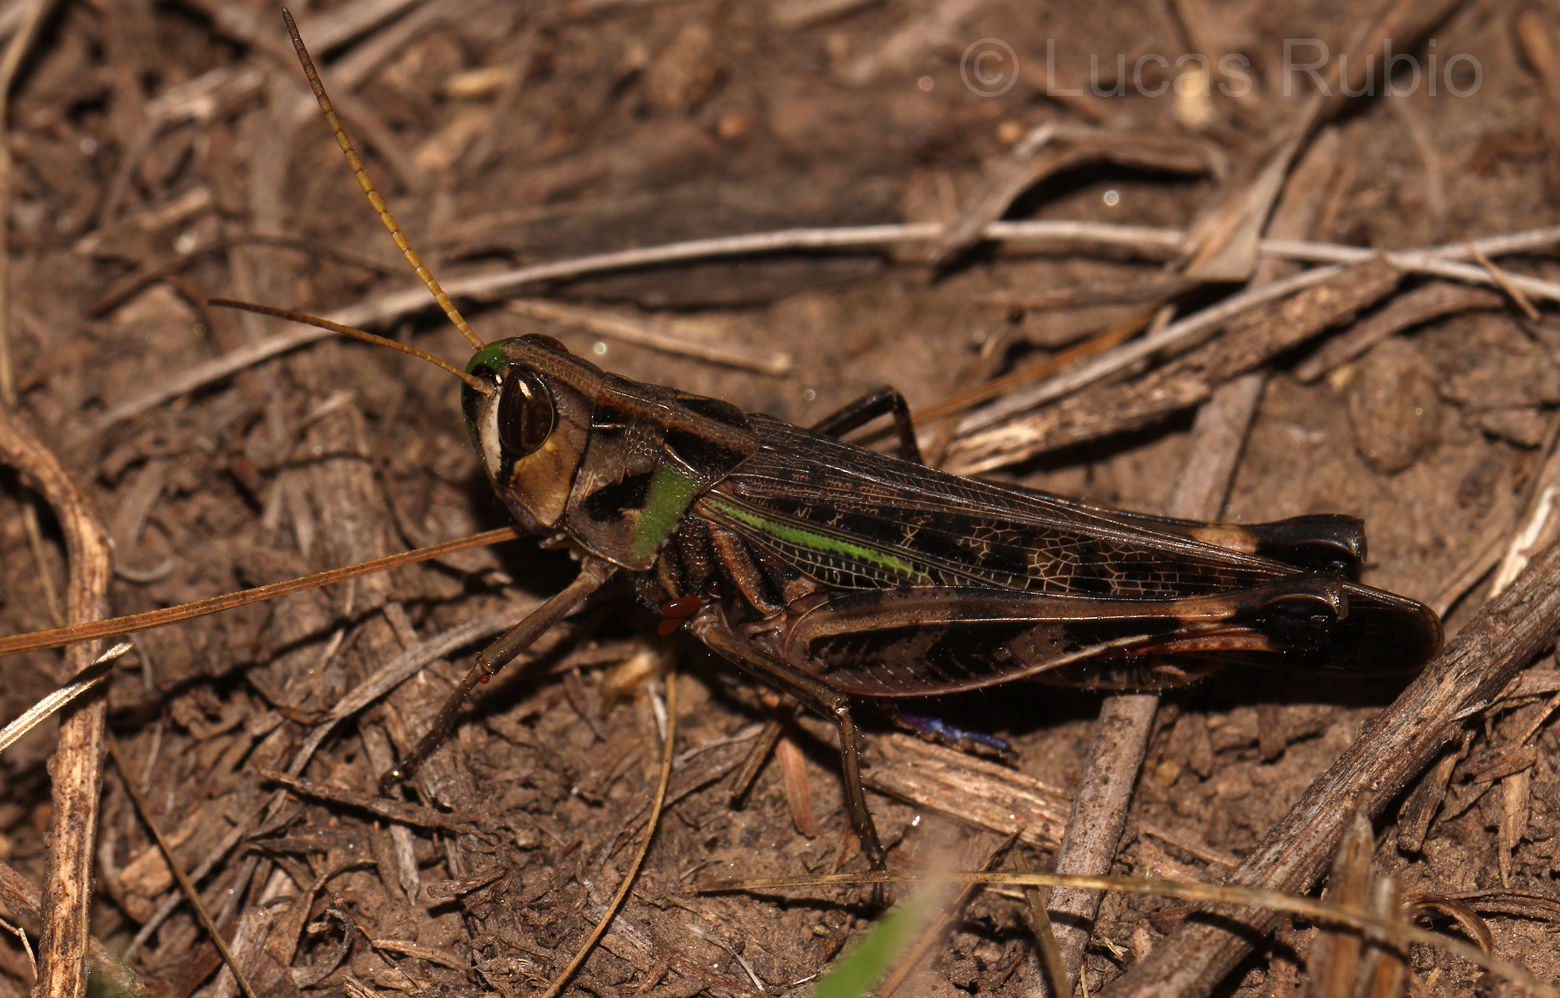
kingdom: Animalia
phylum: Arthropoda
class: Insecta
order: Orthoptera
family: Acrididae
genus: Rhammatocerus
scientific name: Rhammatocerus pictus
